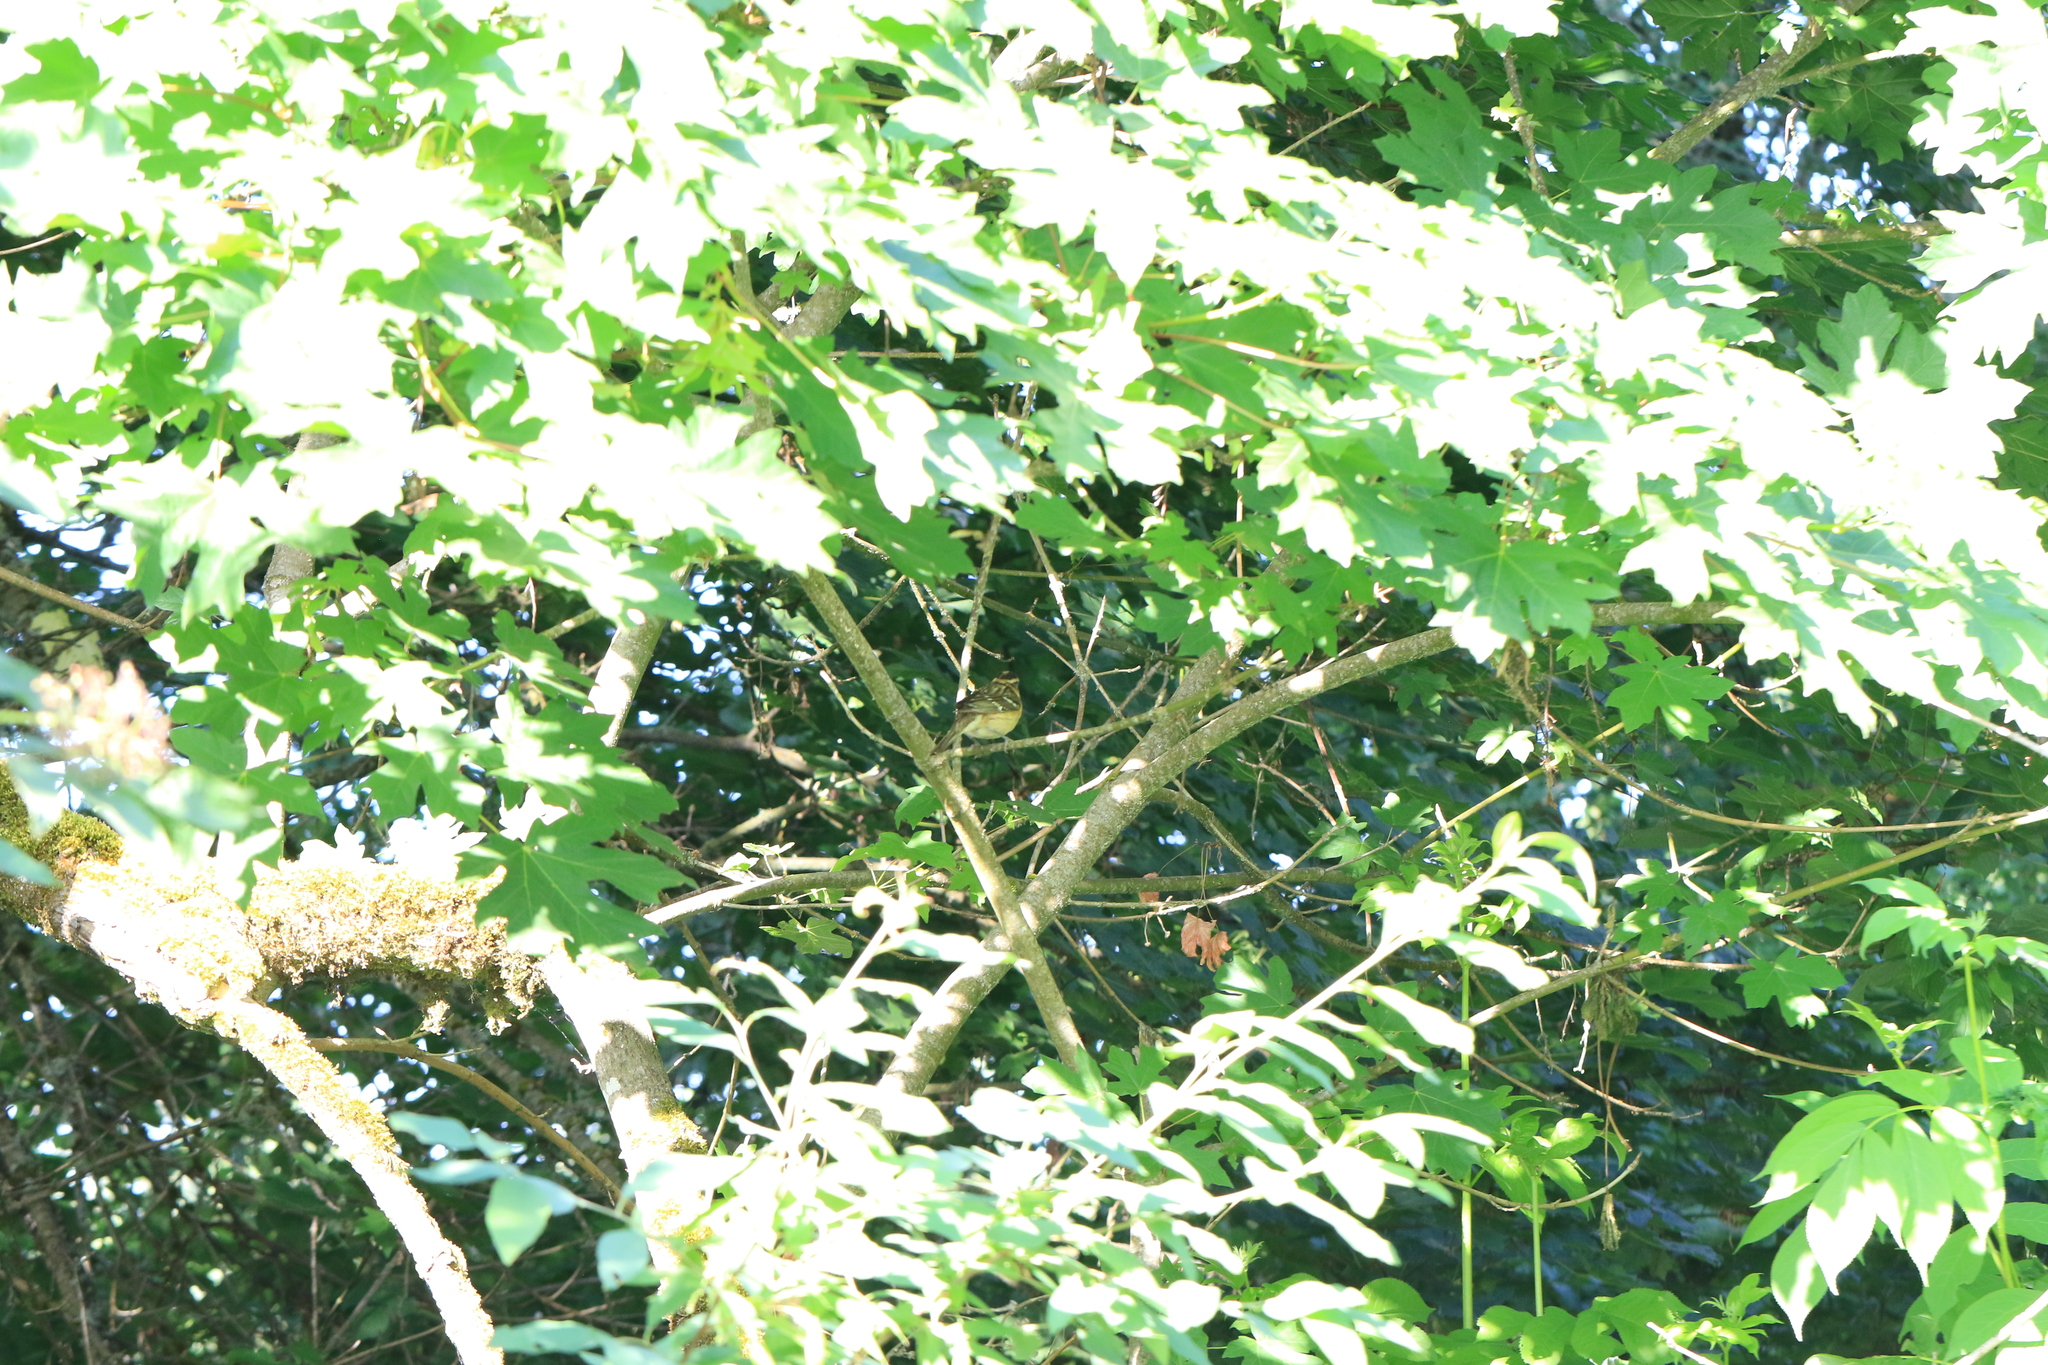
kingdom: Animalia
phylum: Chordata
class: Aves
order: Passeriformes
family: Cardinalidae
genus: Pheucticus
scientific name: Pheucticus melanocephalus
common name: Black-headed grosbeak
